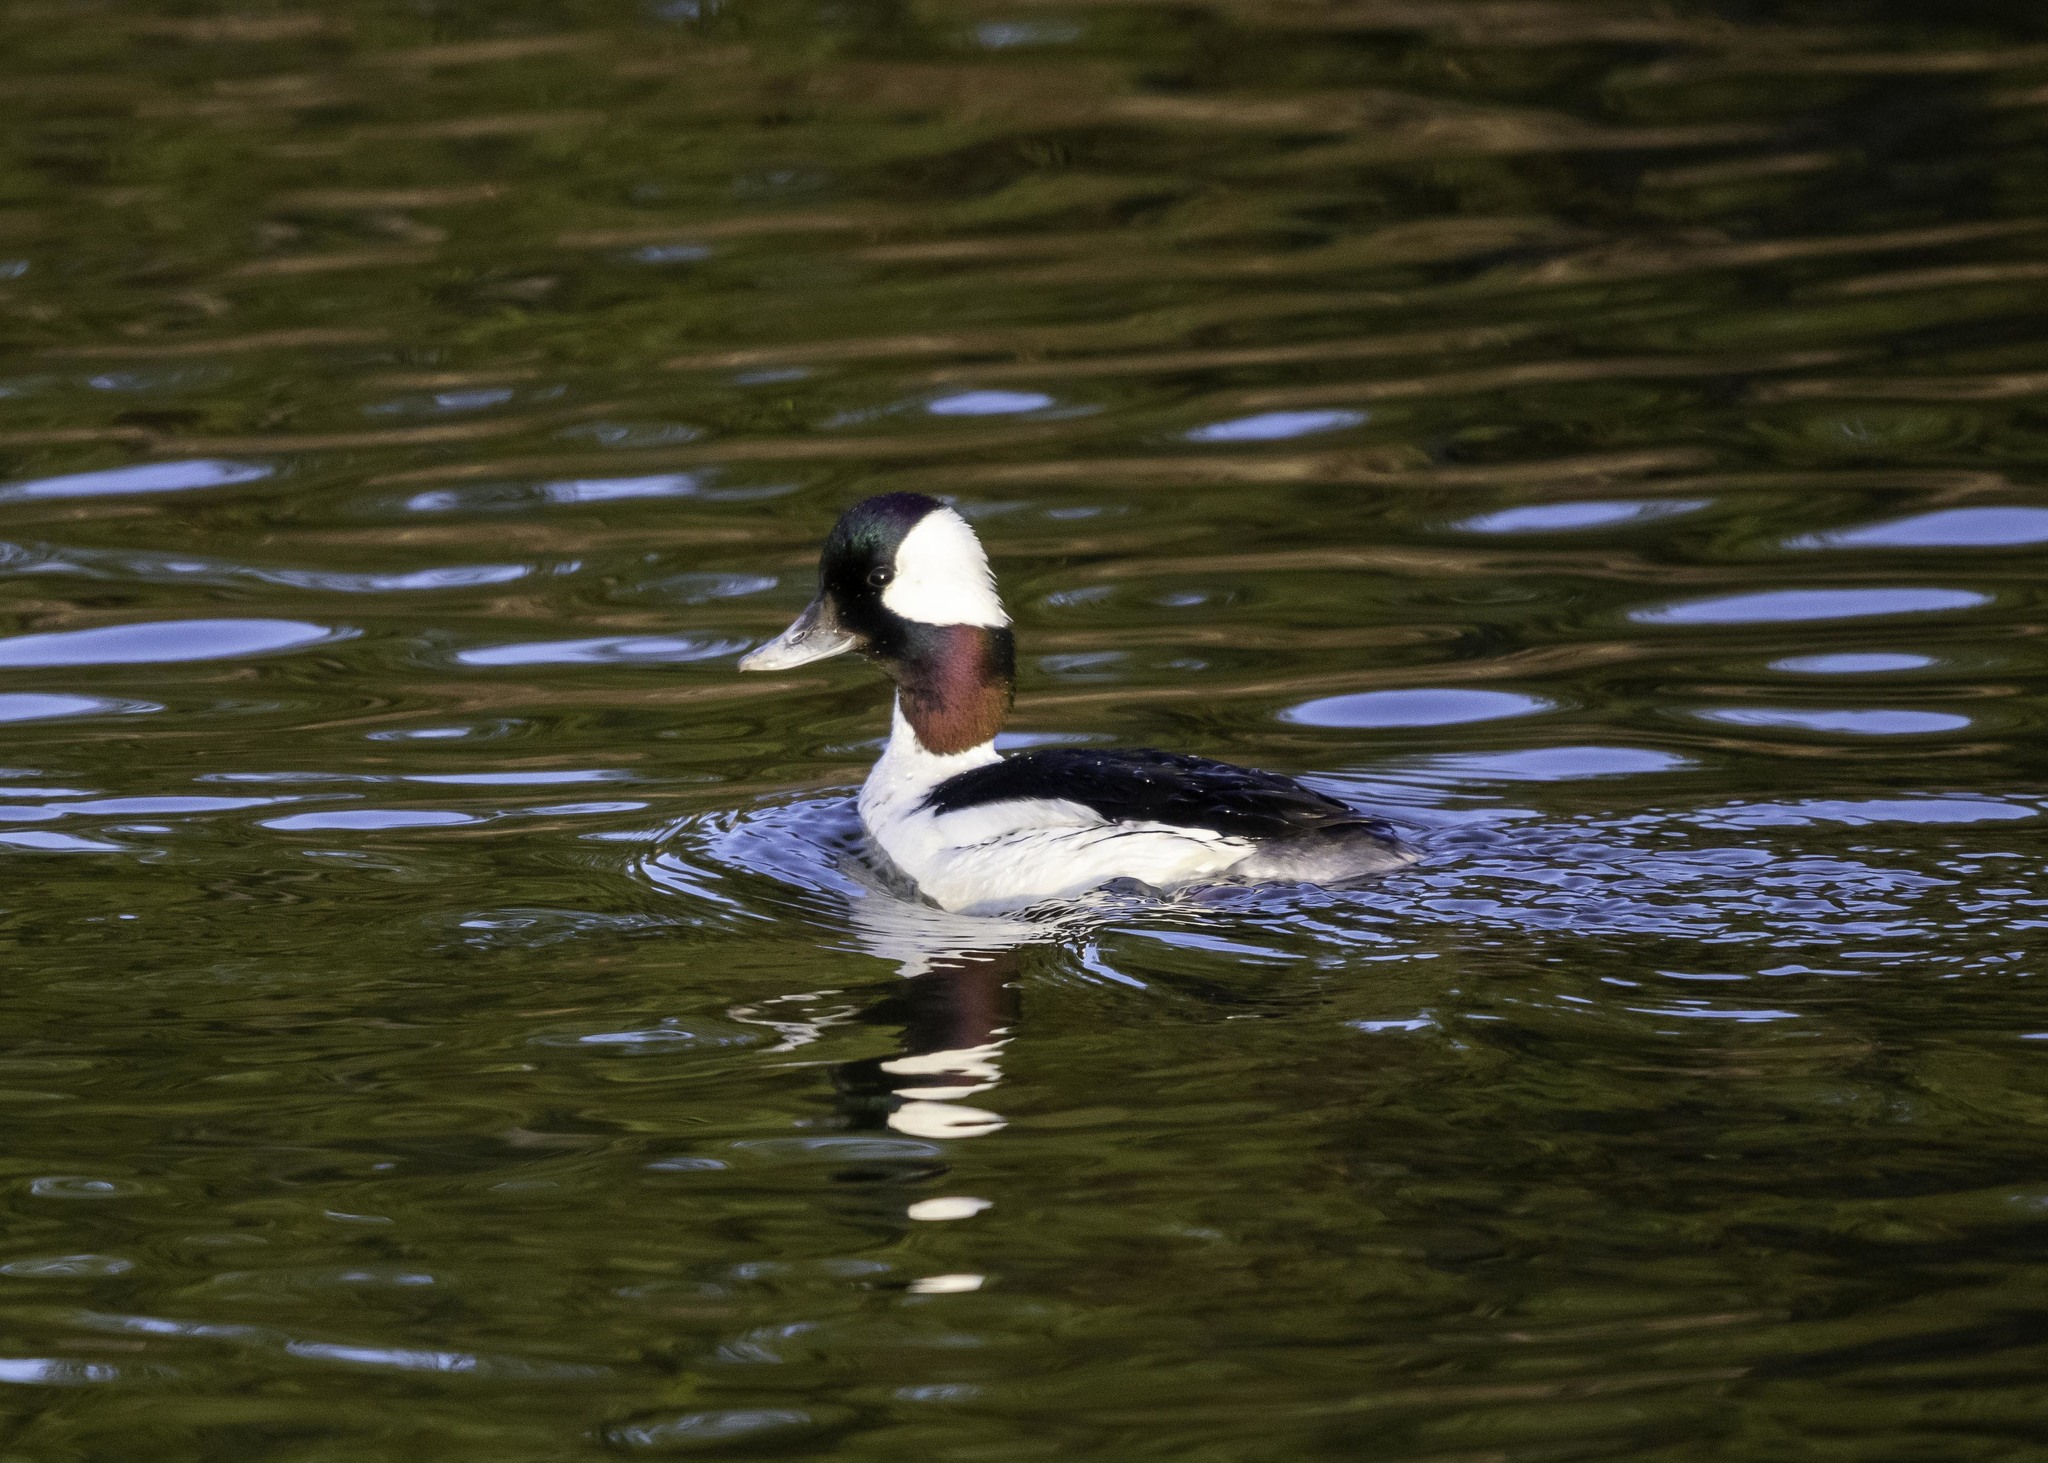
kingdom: Animalia
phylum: Chordata
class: Aves
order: Anseriformes
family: Anatidae
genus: Bucephala
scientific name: Bucephala albeola
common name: Bufflehead
